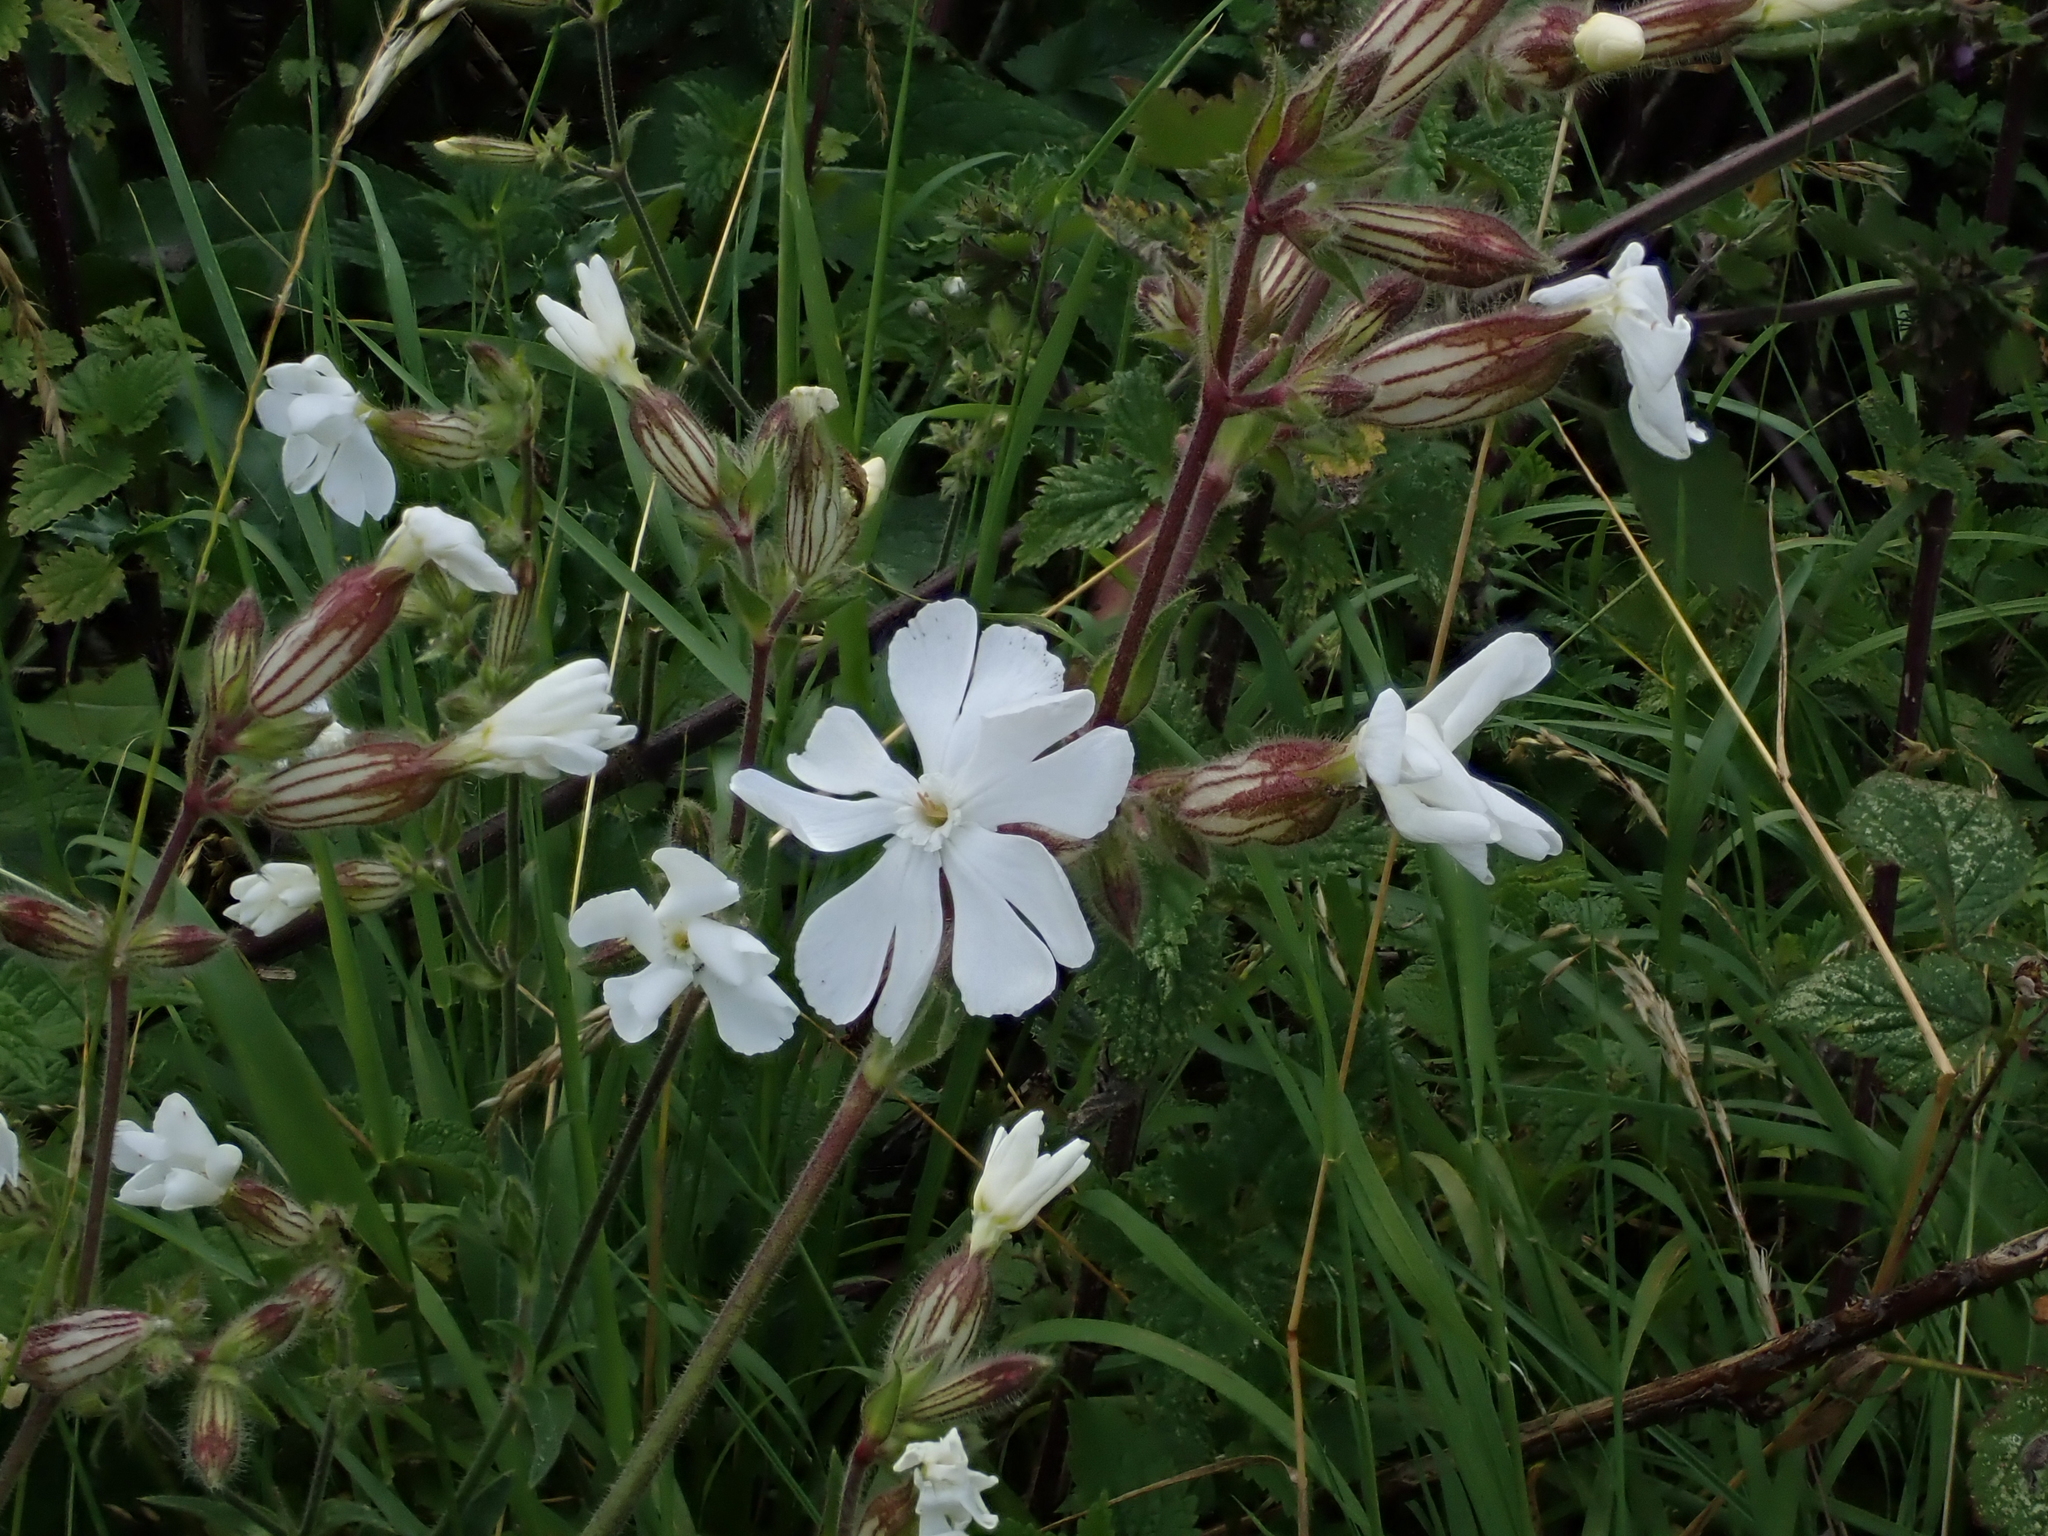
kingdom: Plantae
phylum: Tracheophyta
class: Magnoliopsida
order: Caryophyllales
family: Caryophyllaceae
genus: Silene
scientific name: Silene latifolia
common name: White campion
